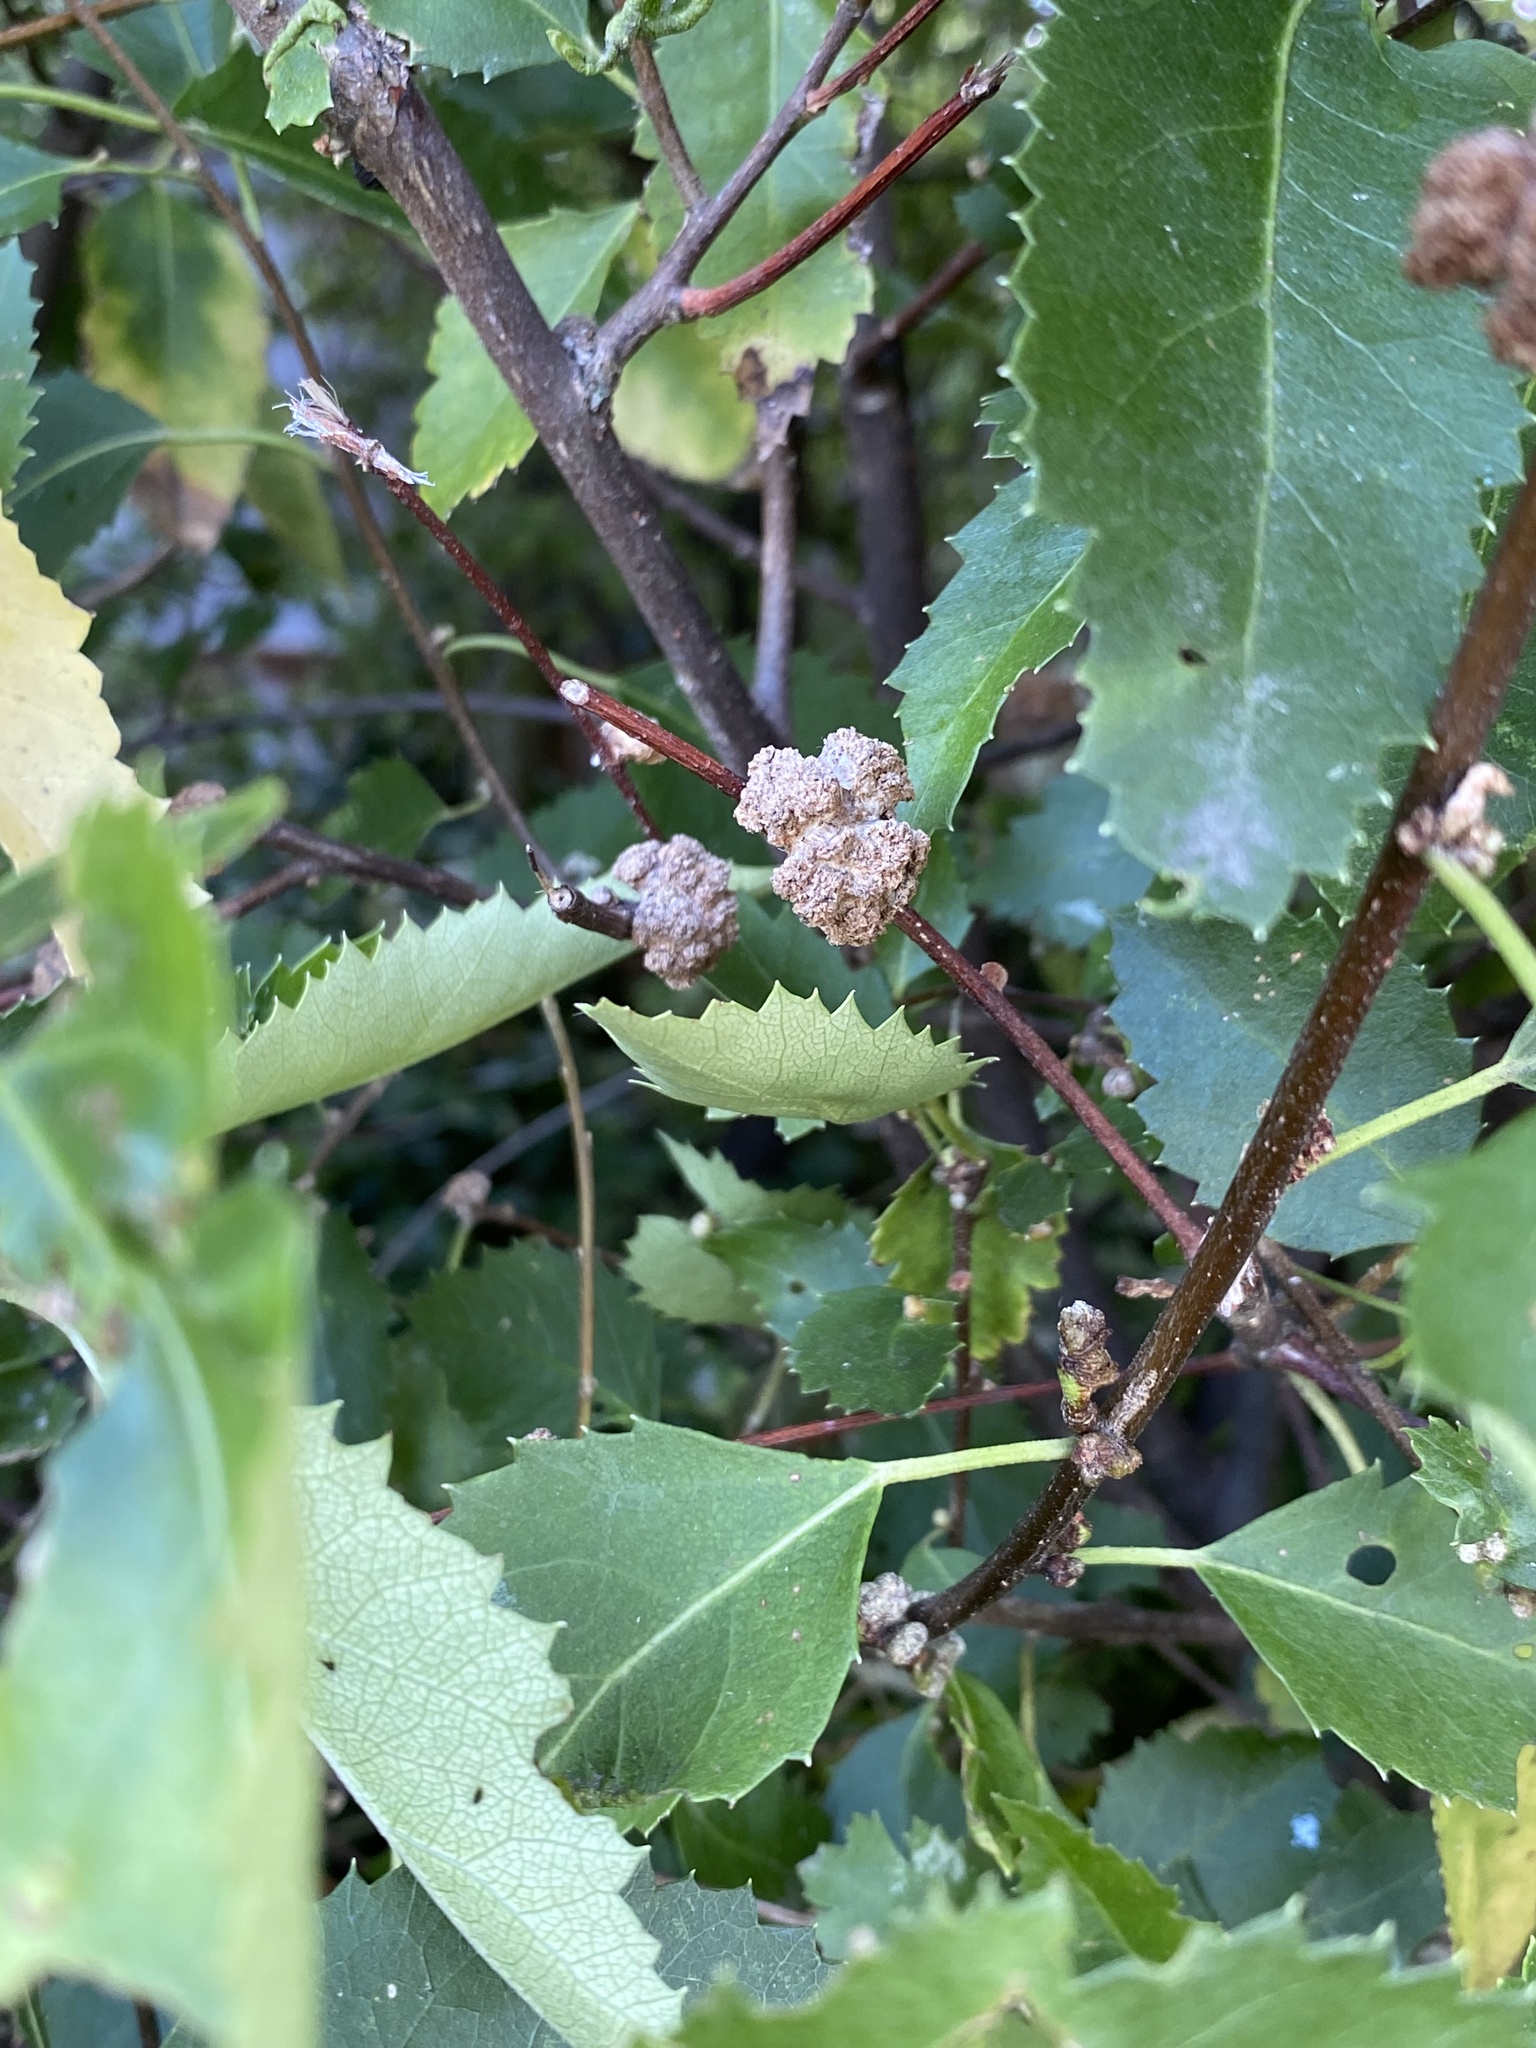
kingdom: Animalia
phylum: Arthropoda
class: Arachnida
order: Trombidiformes
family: Eriophyidae
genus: Eriophyes
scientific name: Eriophyes hoheriae
